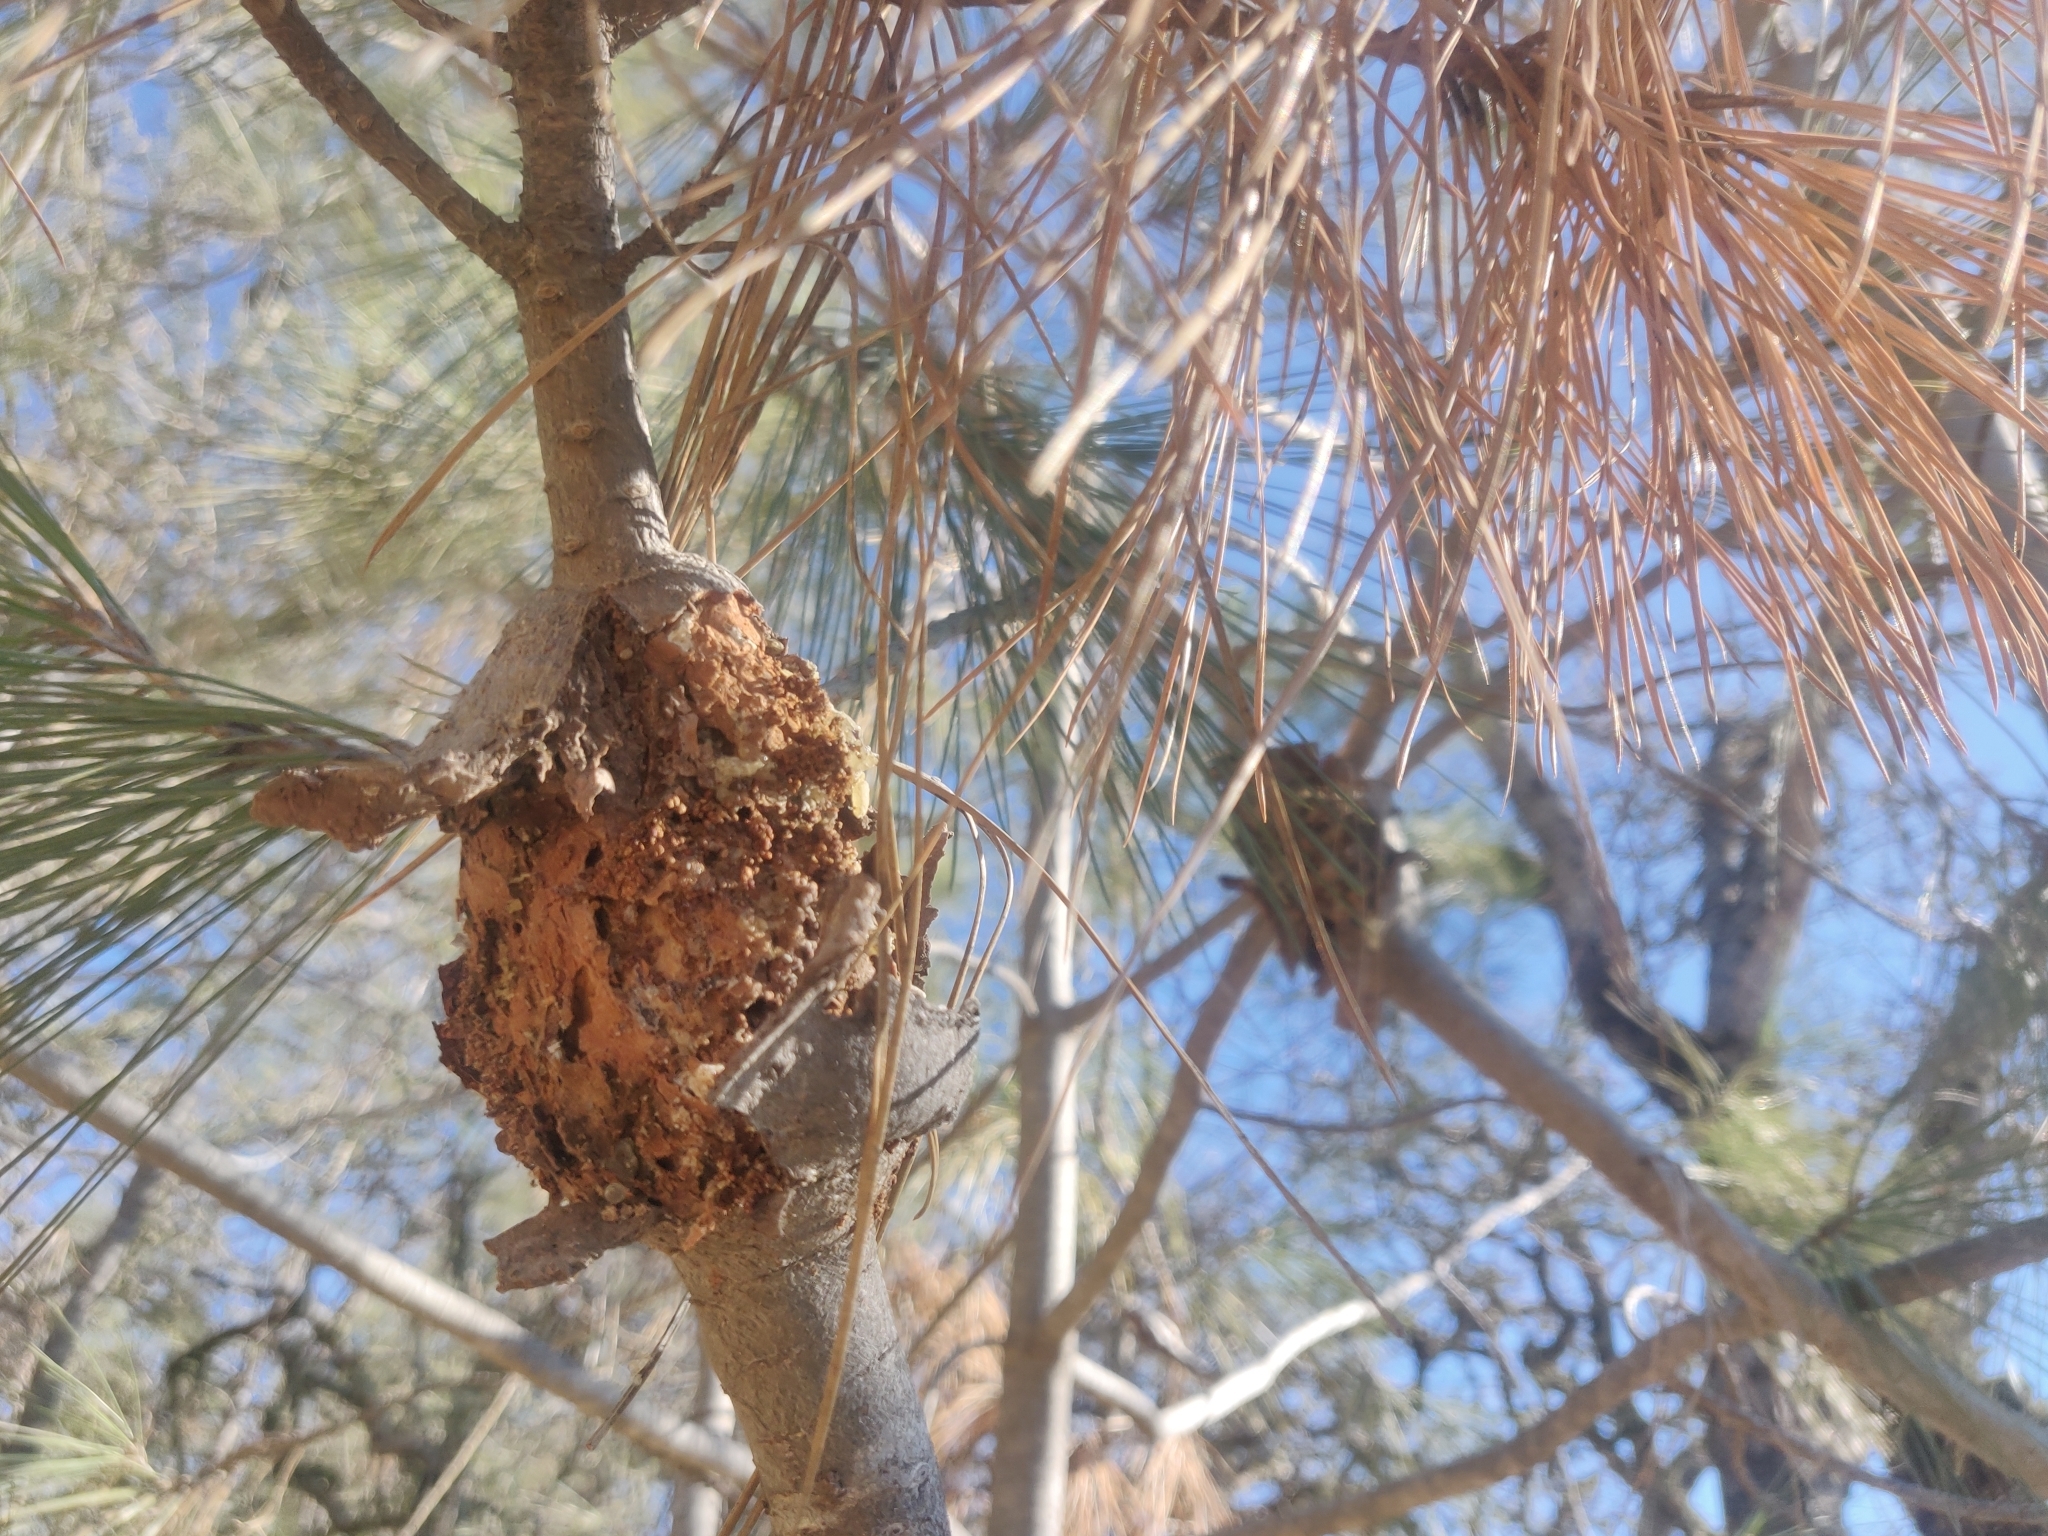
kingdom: Fungi
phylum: Basidiomycota
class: Pucciniomycetes
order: Pucciniales
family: Cronartiaceae
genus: Cronartium
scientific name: Cronartium harknessii
